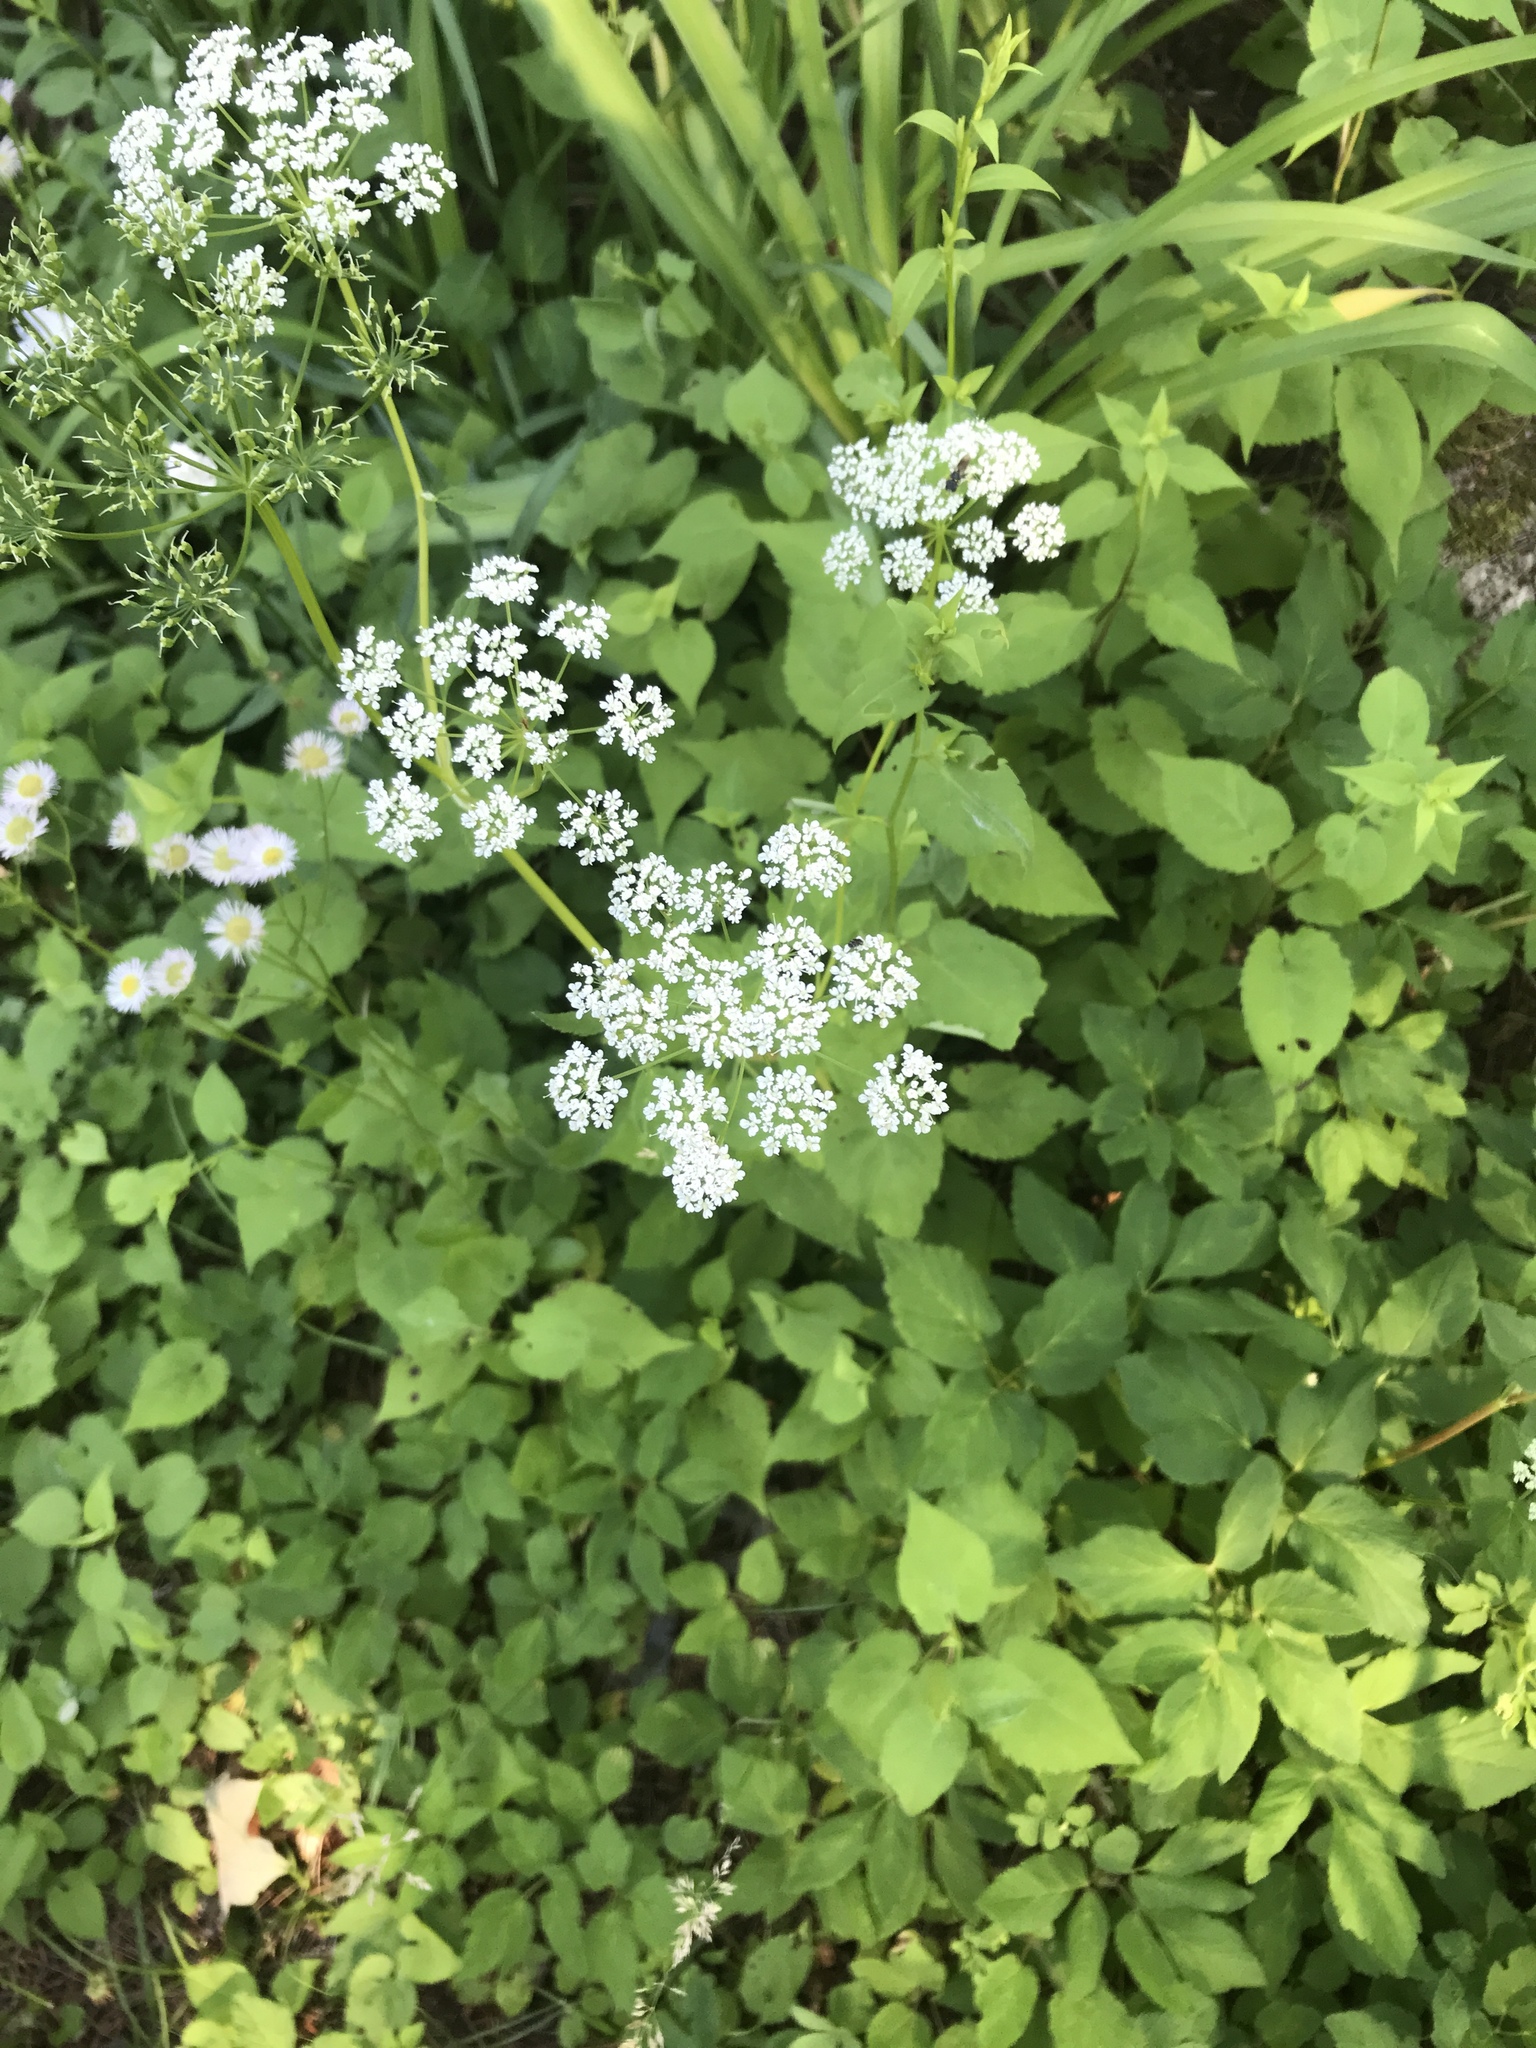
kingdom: Plantae
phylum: Tracheophyta
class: Magnoliopsida
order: Apiales
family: Apiaceae
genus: Aegopodium
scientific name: Aegopodium podagraria
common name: Ground-elder
